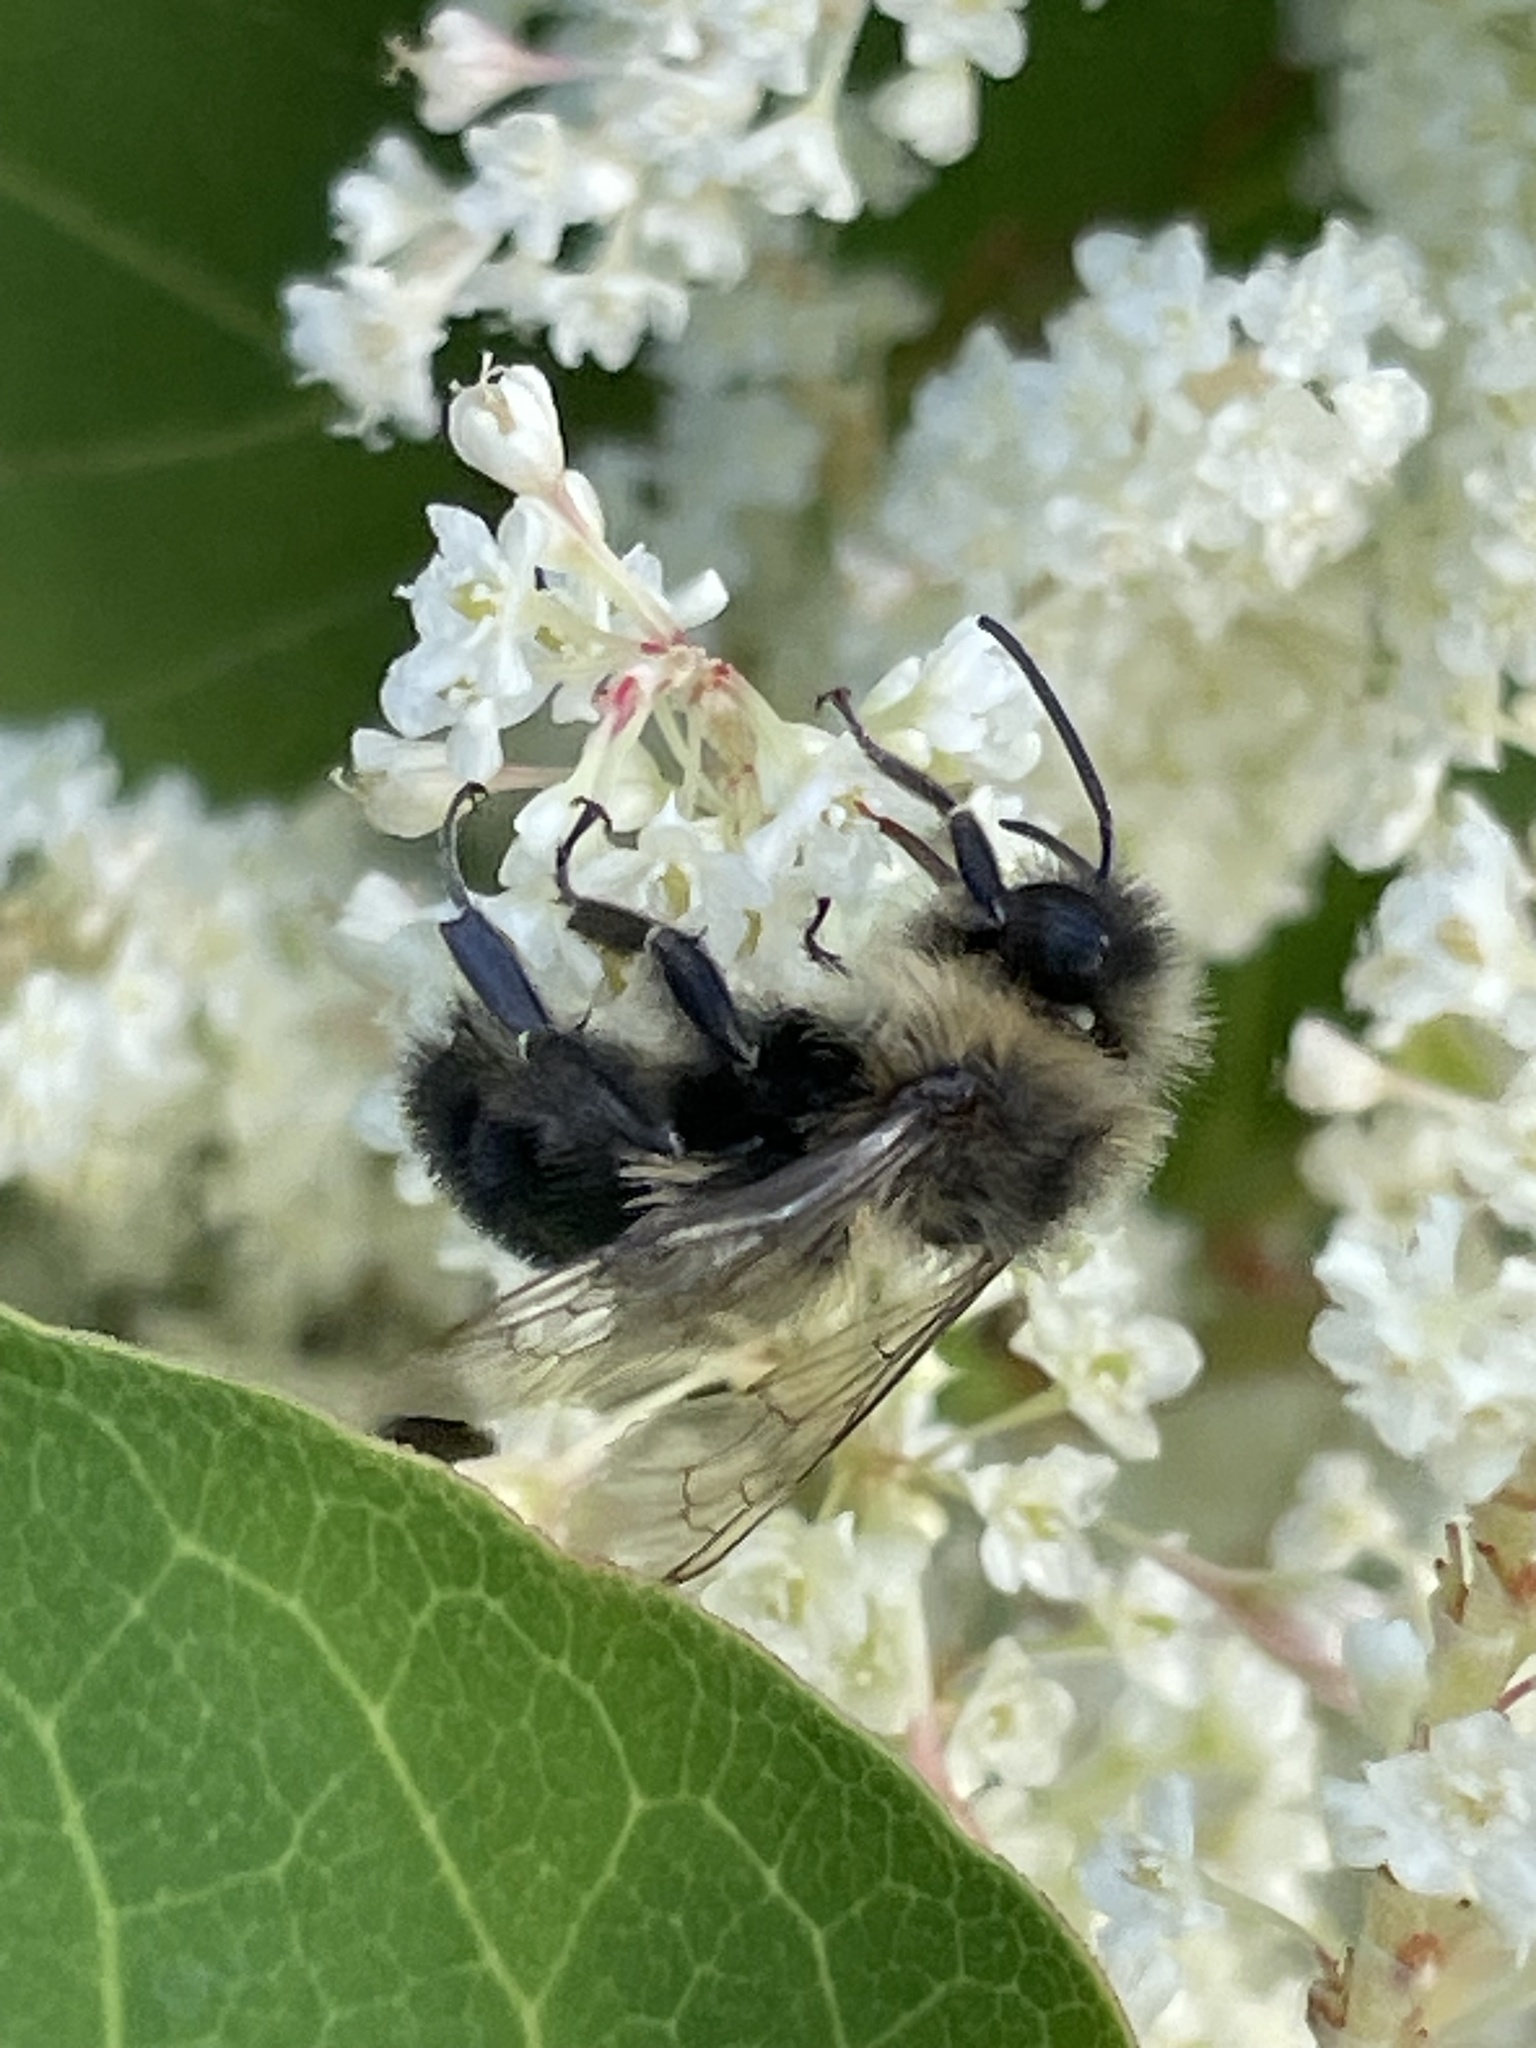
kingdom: Animalia
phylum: Arthropoda
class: Insecta
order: Hymenoptera
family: Apidae
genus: Bombus
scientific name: Bombus impatiens
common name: Common eastern bumble bee
